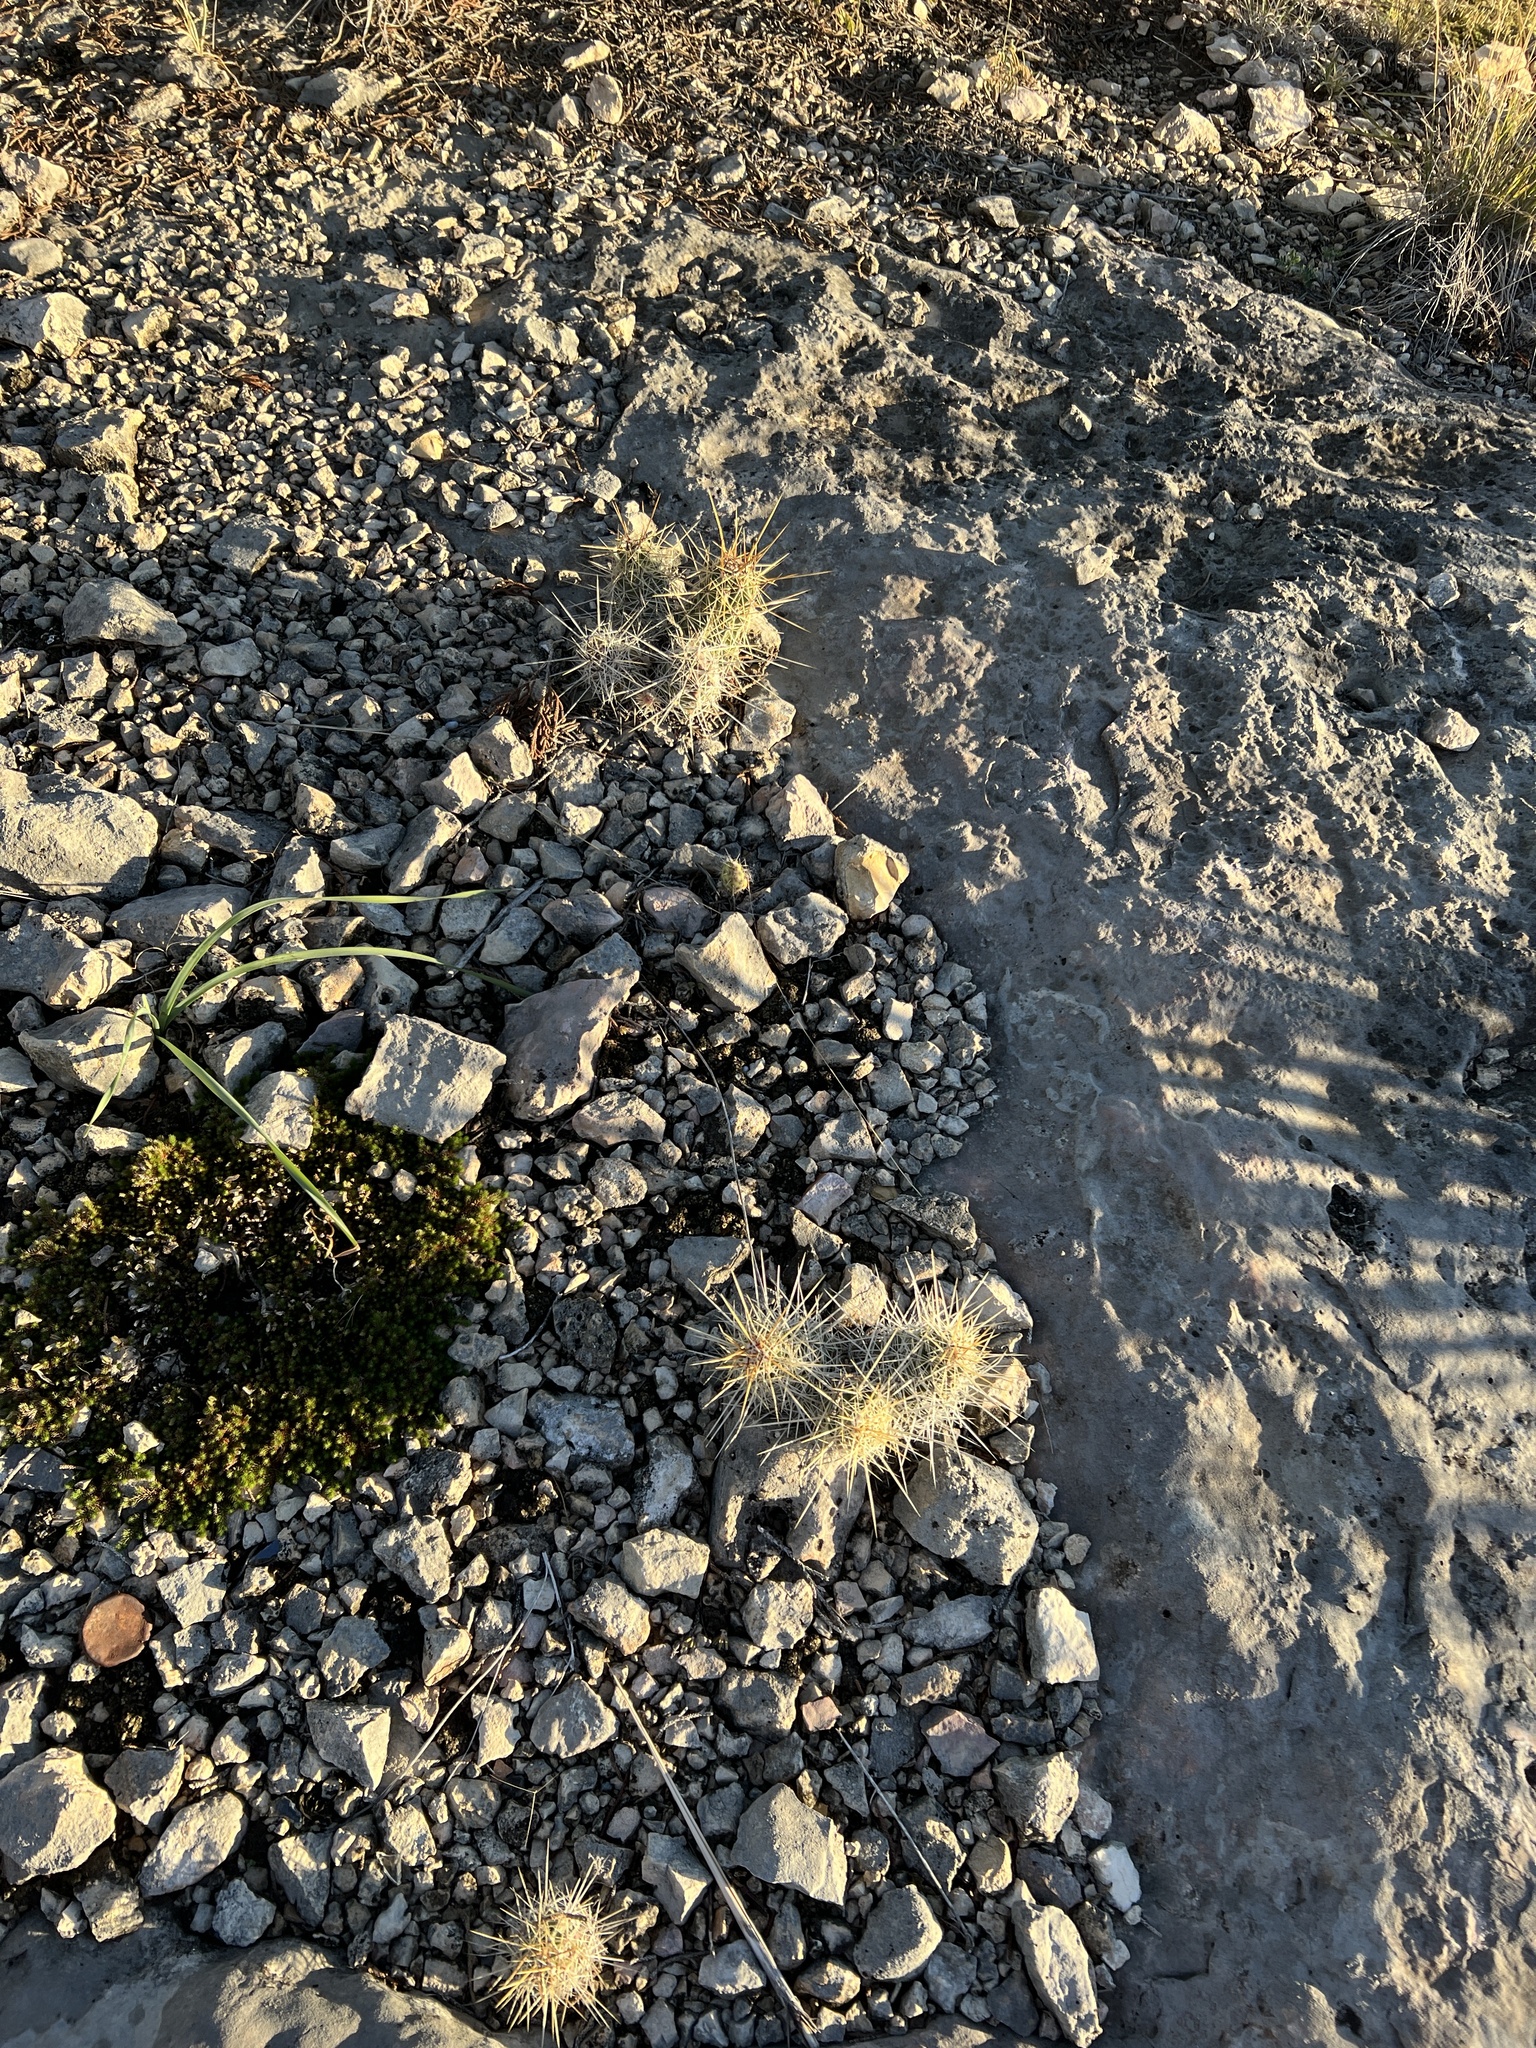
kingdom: Plantae
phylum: Tracheophyta
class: Magnoliopsida
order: Caryophyllales
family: Cactaceae
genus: Echinocereus
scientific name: Echinocereus enneacanthus
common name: Pitaya
